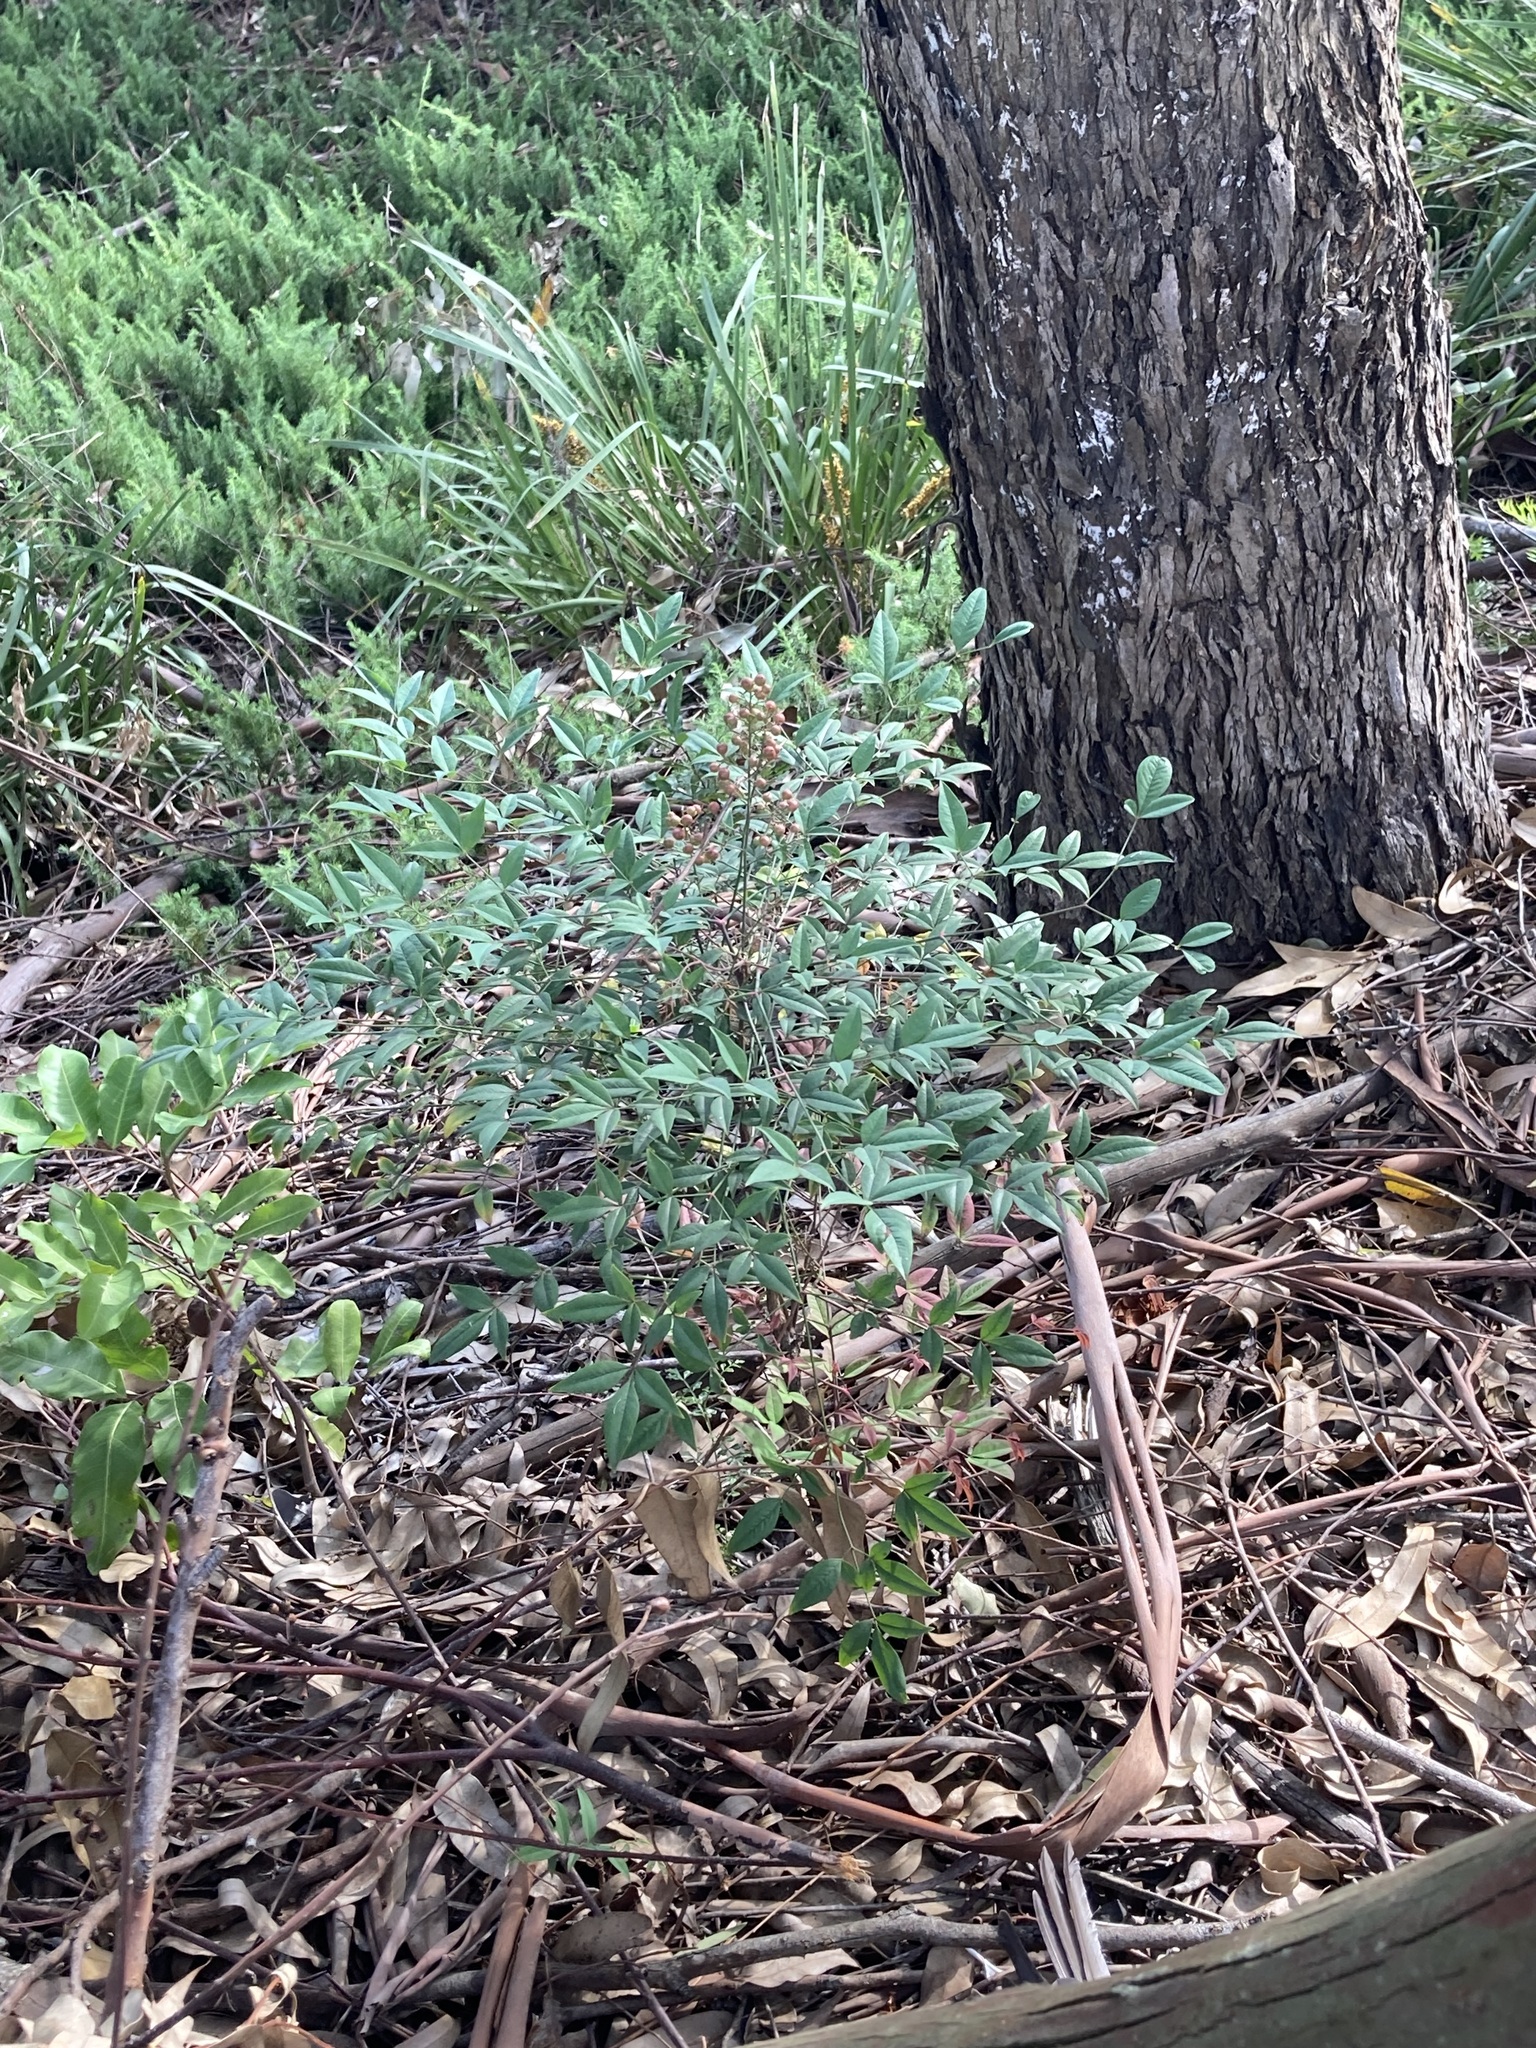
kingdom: Plantae
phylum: Tracheophyta
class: Magnoliopsida
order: Ranunculales
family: Berberidaceae
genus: Nandina
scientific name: Nandina domestica
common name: Sacred bamboo
